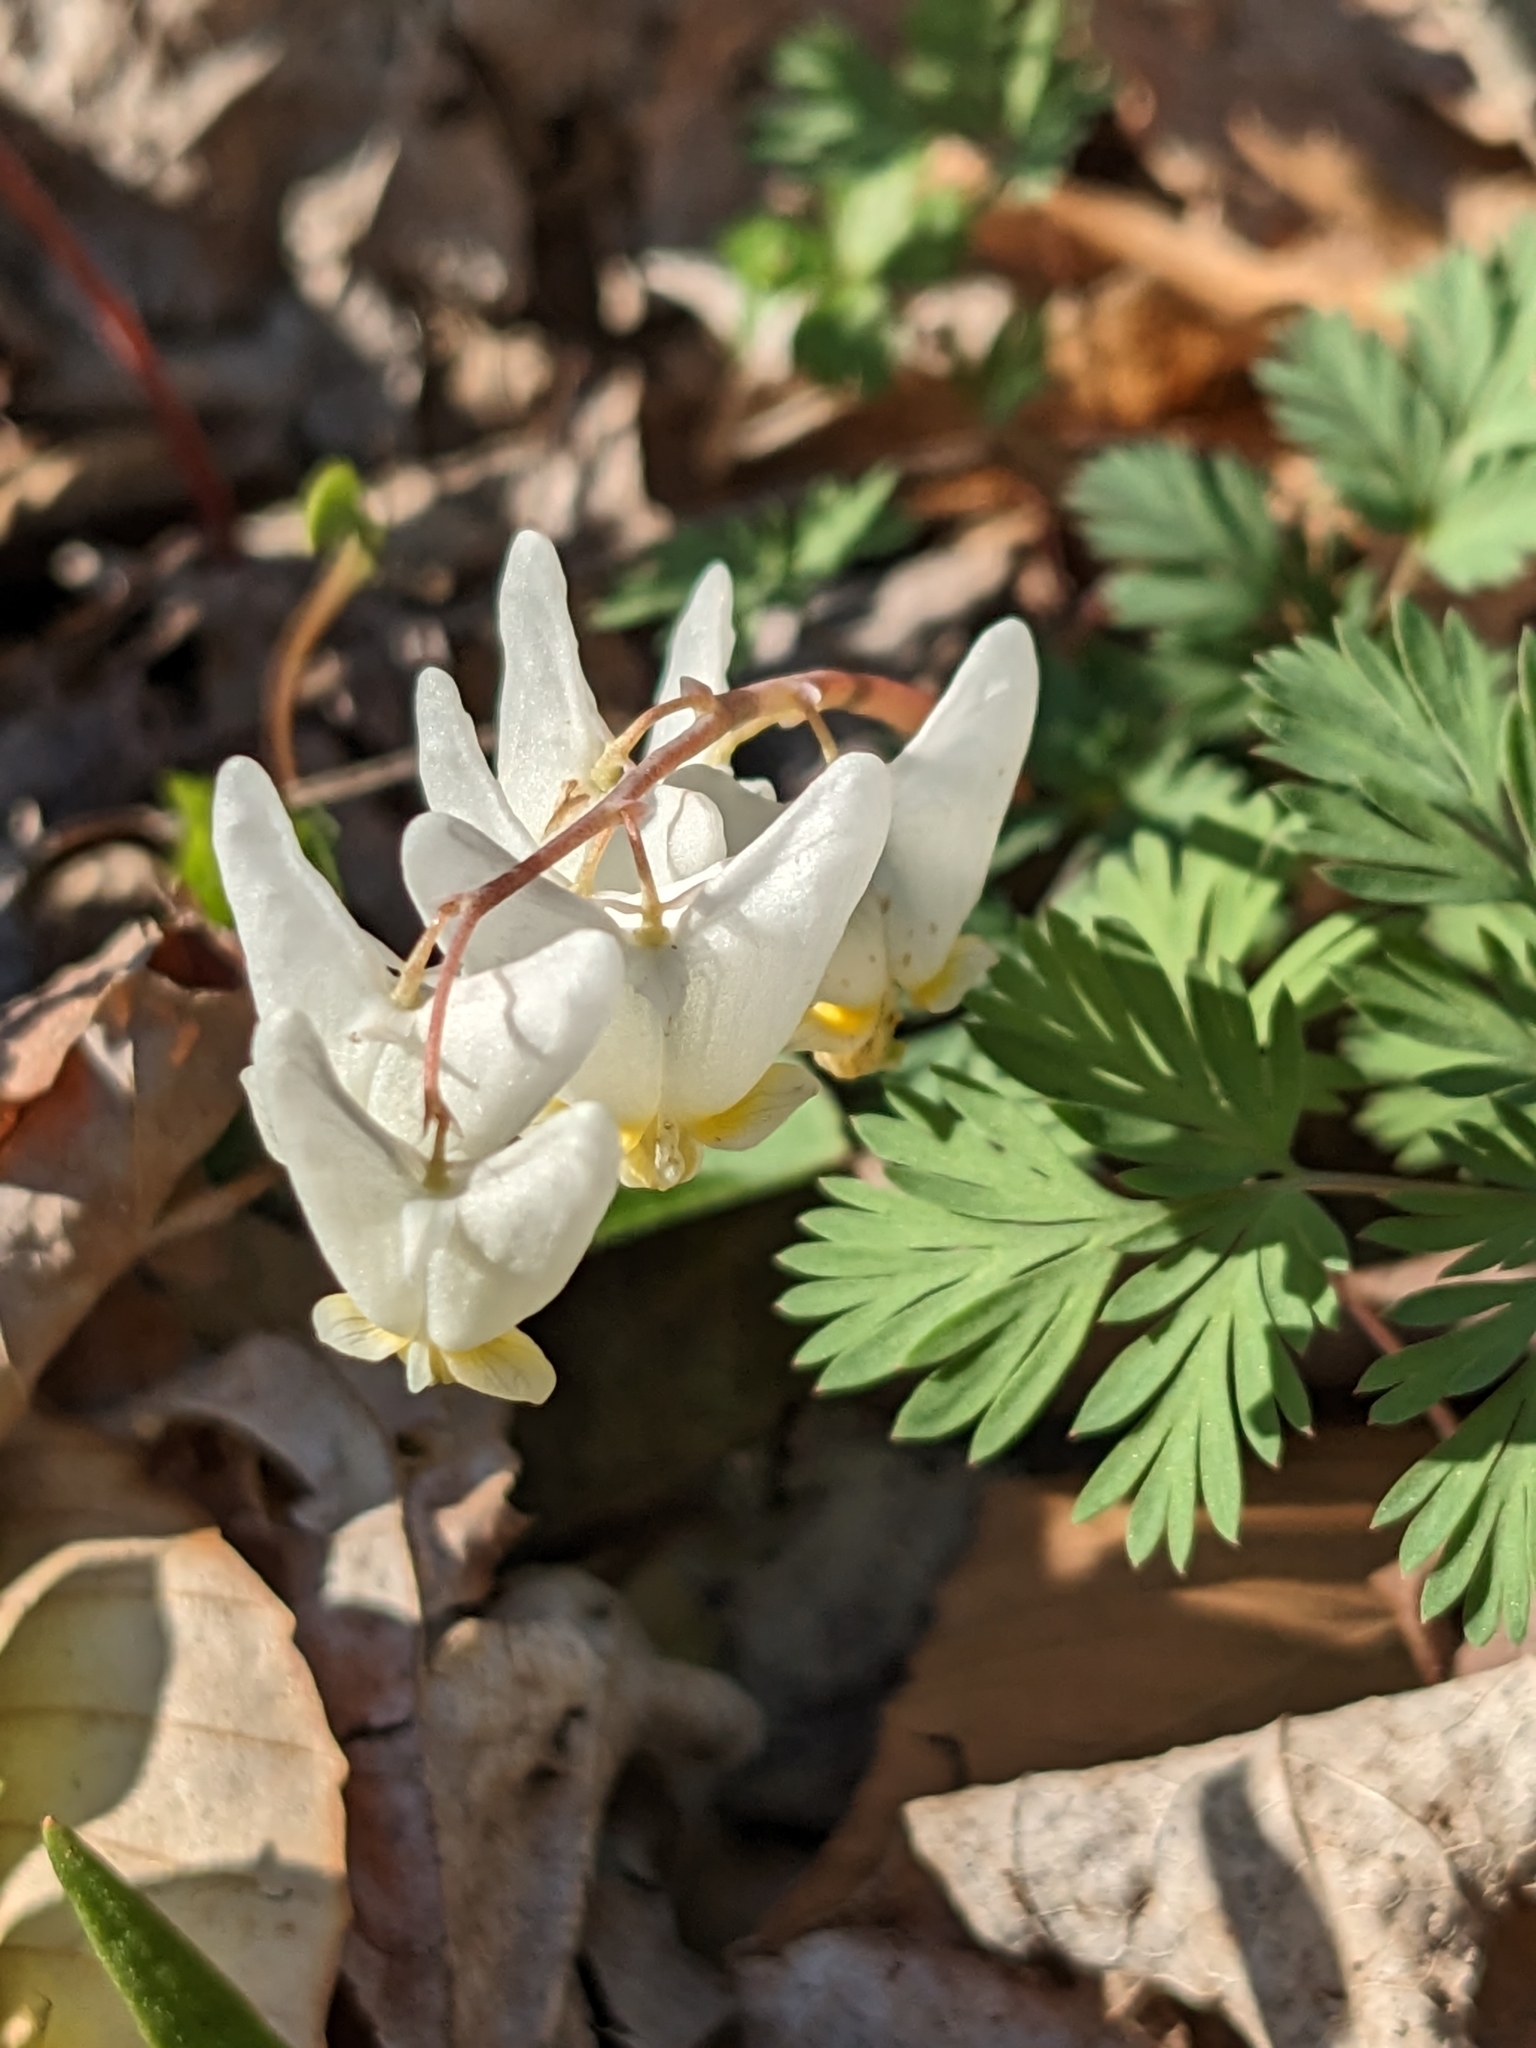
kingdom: Plantae
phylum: Tracheophyta
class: Magnoliopsida
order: Ranunculales
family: Papaveraceae
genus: Dicentra
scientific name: Dicentra cucullaria
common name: Dutchman's breeches
